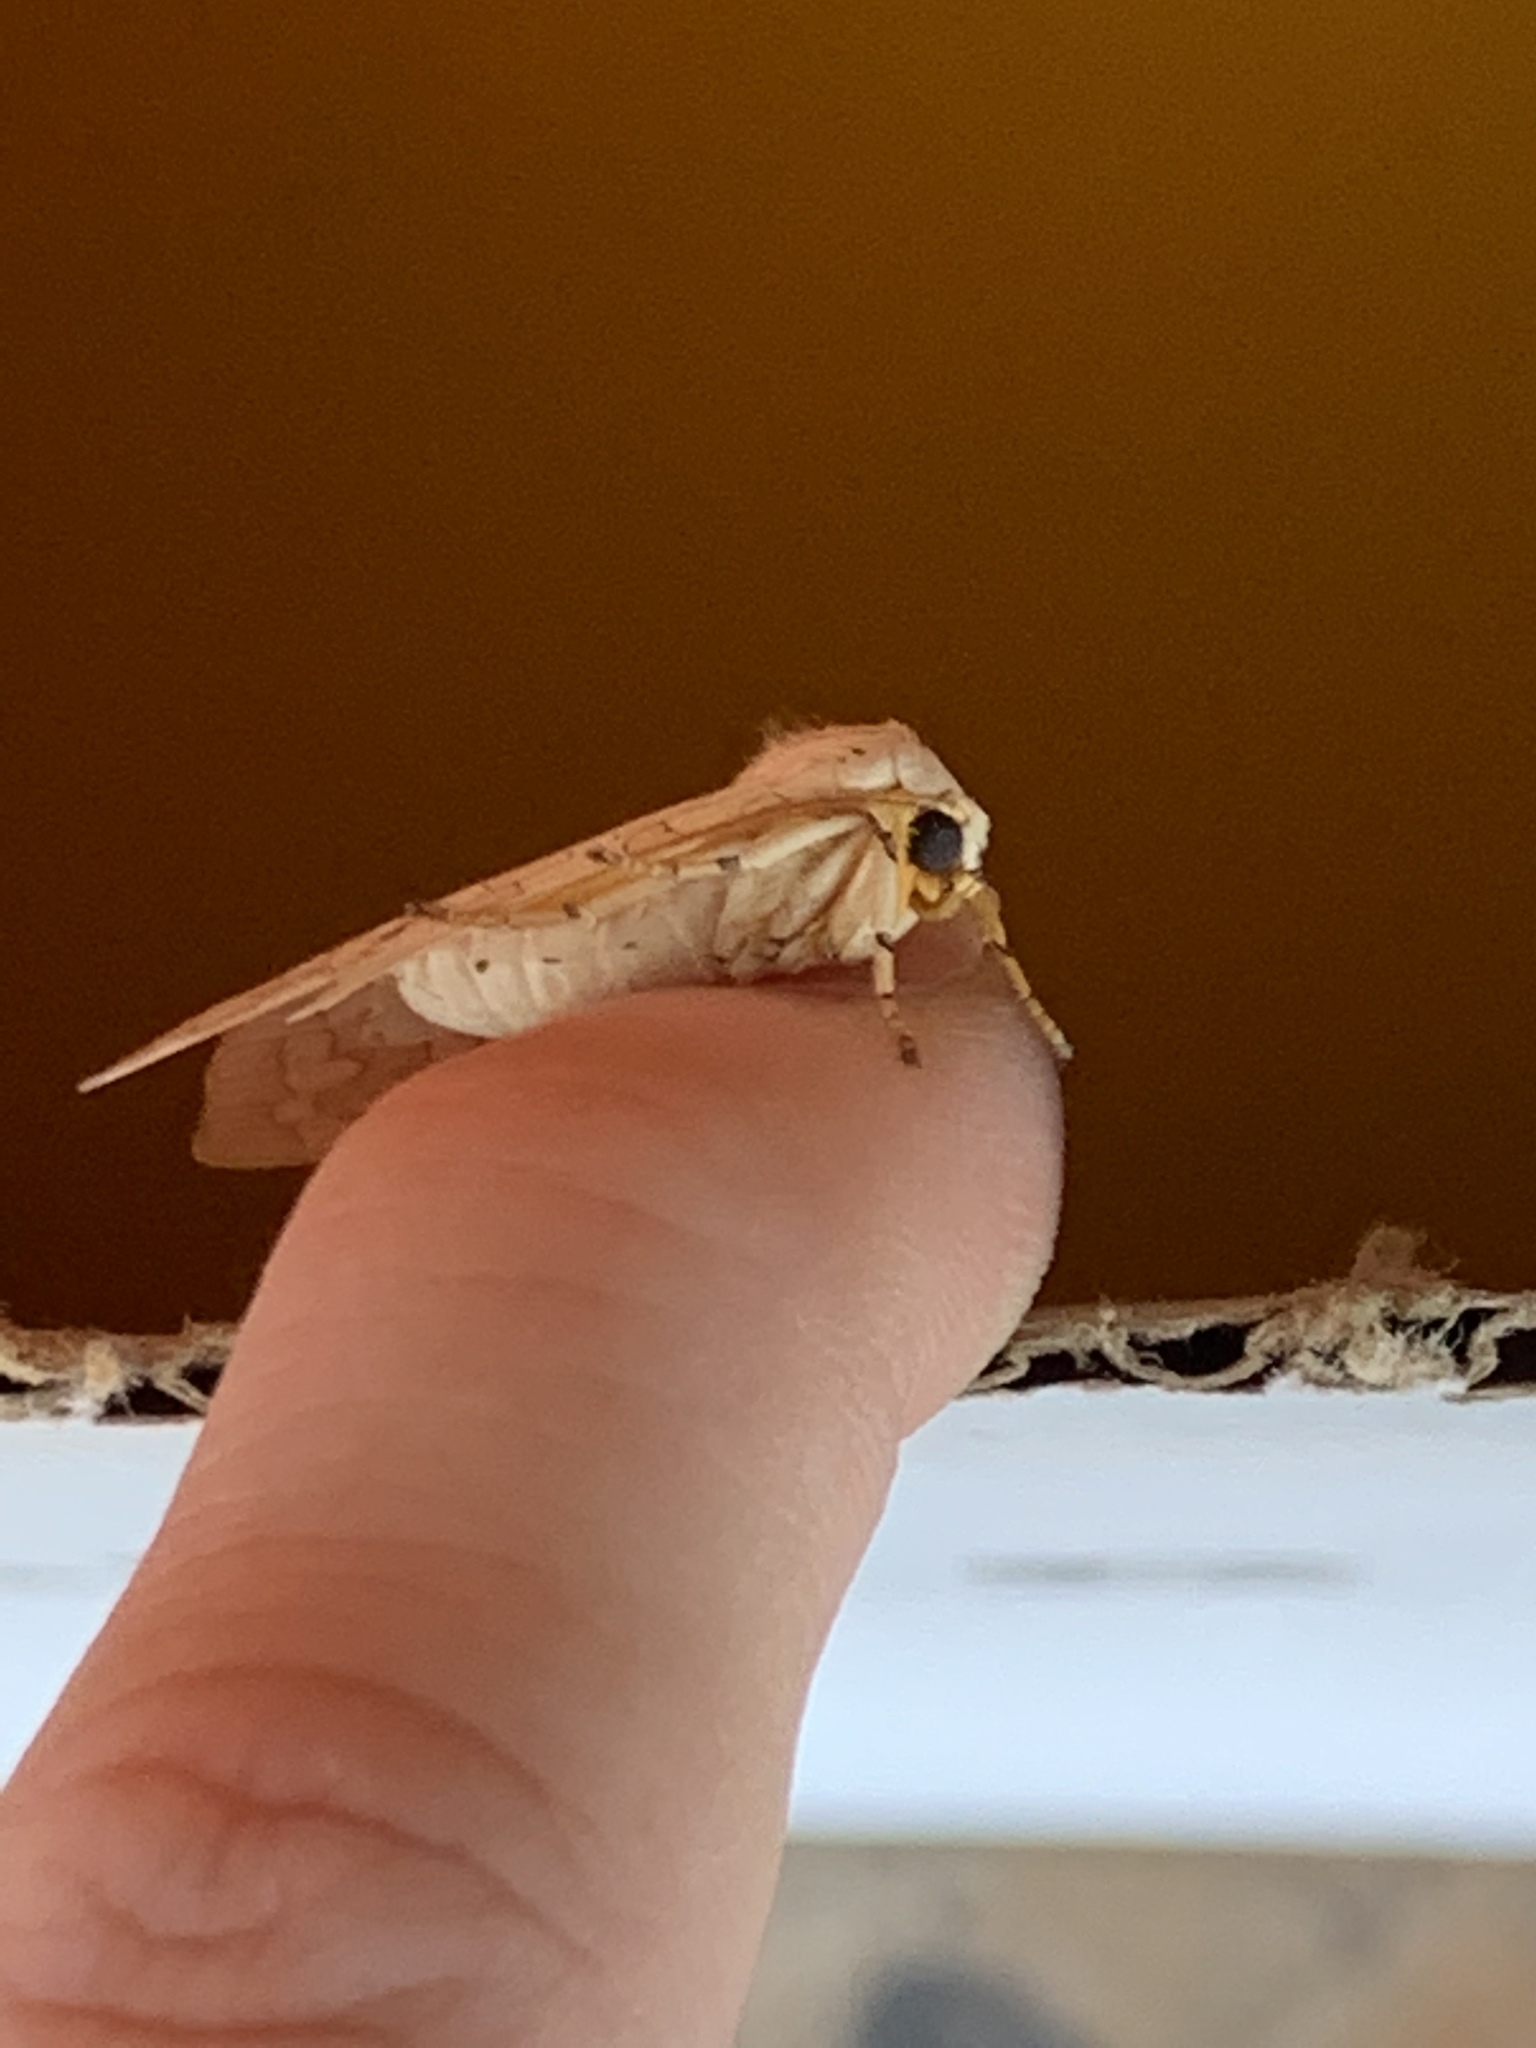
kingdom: Animalia
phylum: Arthropoda
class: Insecta
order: Lepidoptera
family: Erebidae
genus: Halysidota
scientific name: Halysidota
